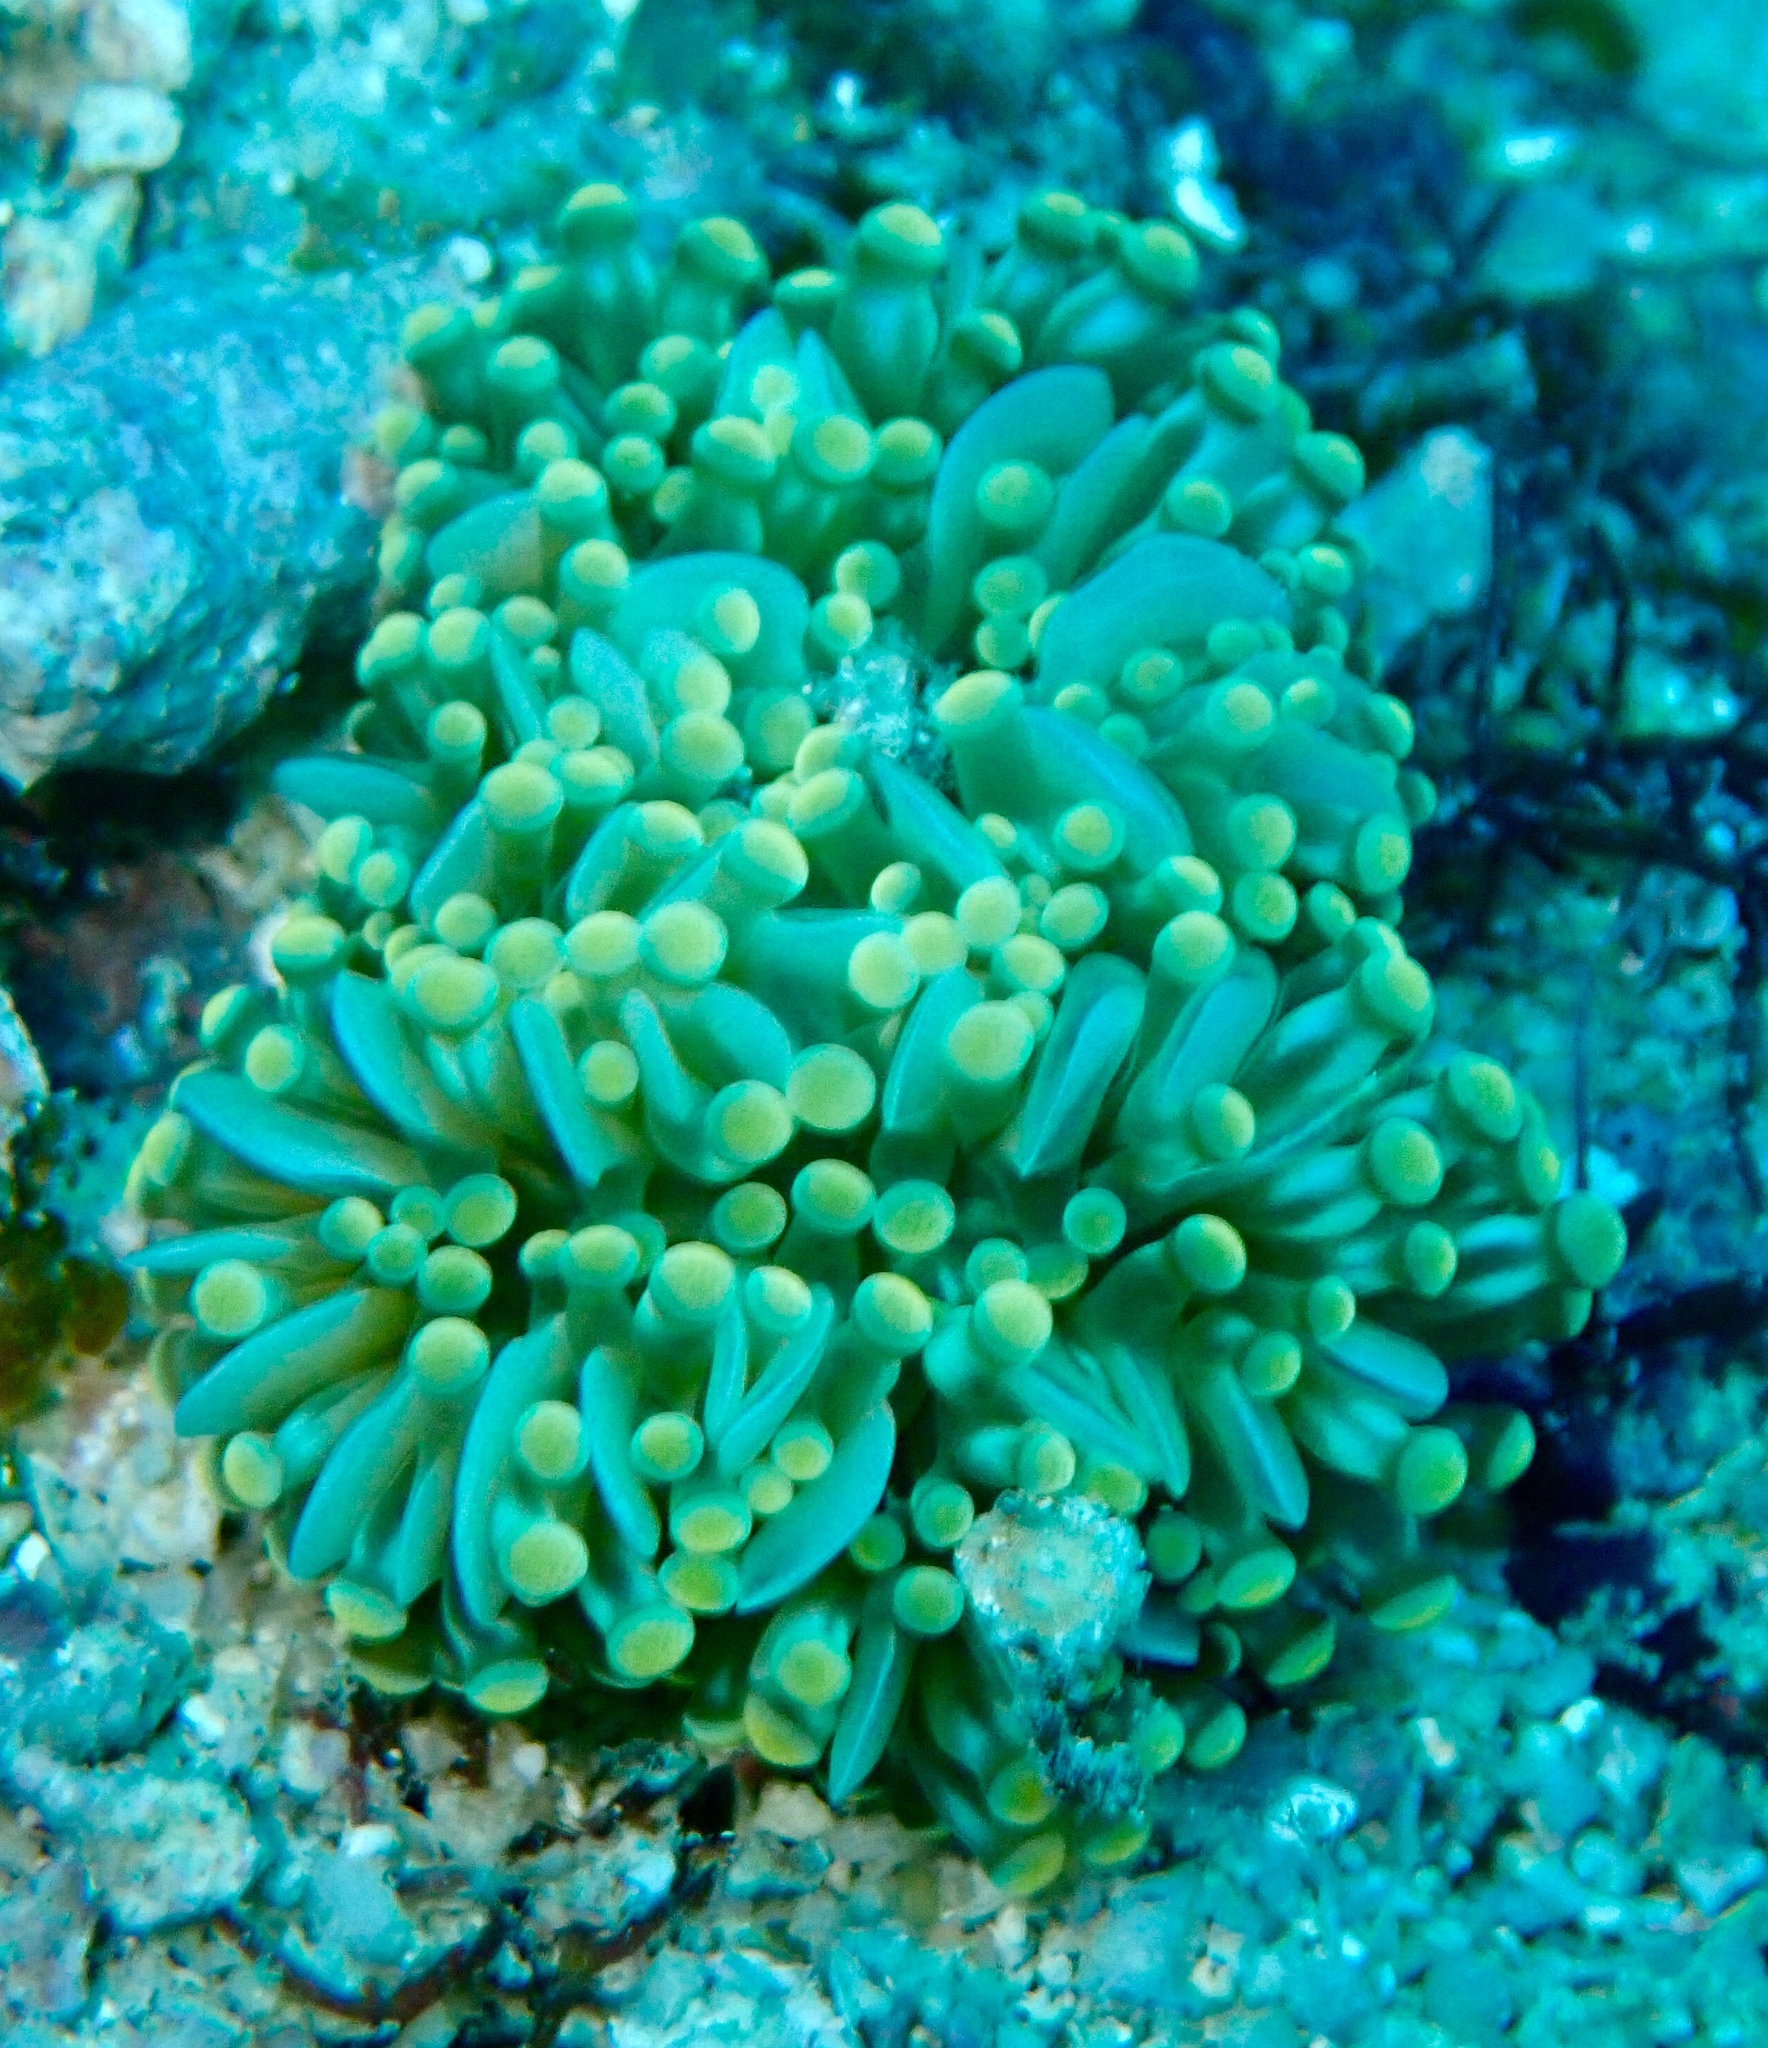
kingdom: Animalia
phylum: Cnidaria
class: Anthozoa
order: Scleractinia
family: Euphylliidae
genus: Euphyllia
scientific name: Euphyllia cristata
